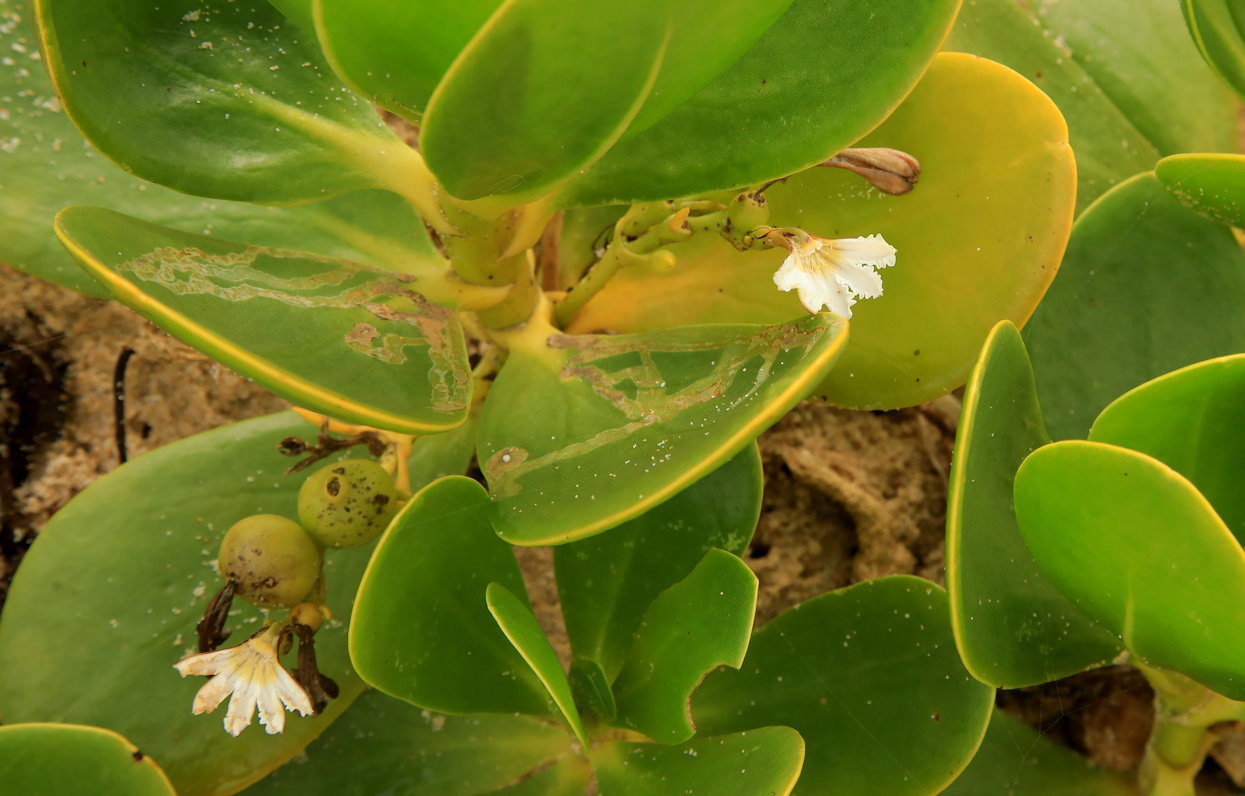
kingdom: Plantae
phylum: Tracheophyta
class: Magnoliopsida
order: Asterales
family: Goodeniaceae
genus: Scaevola
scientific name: Scaevola plumieri
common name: Gull feed
